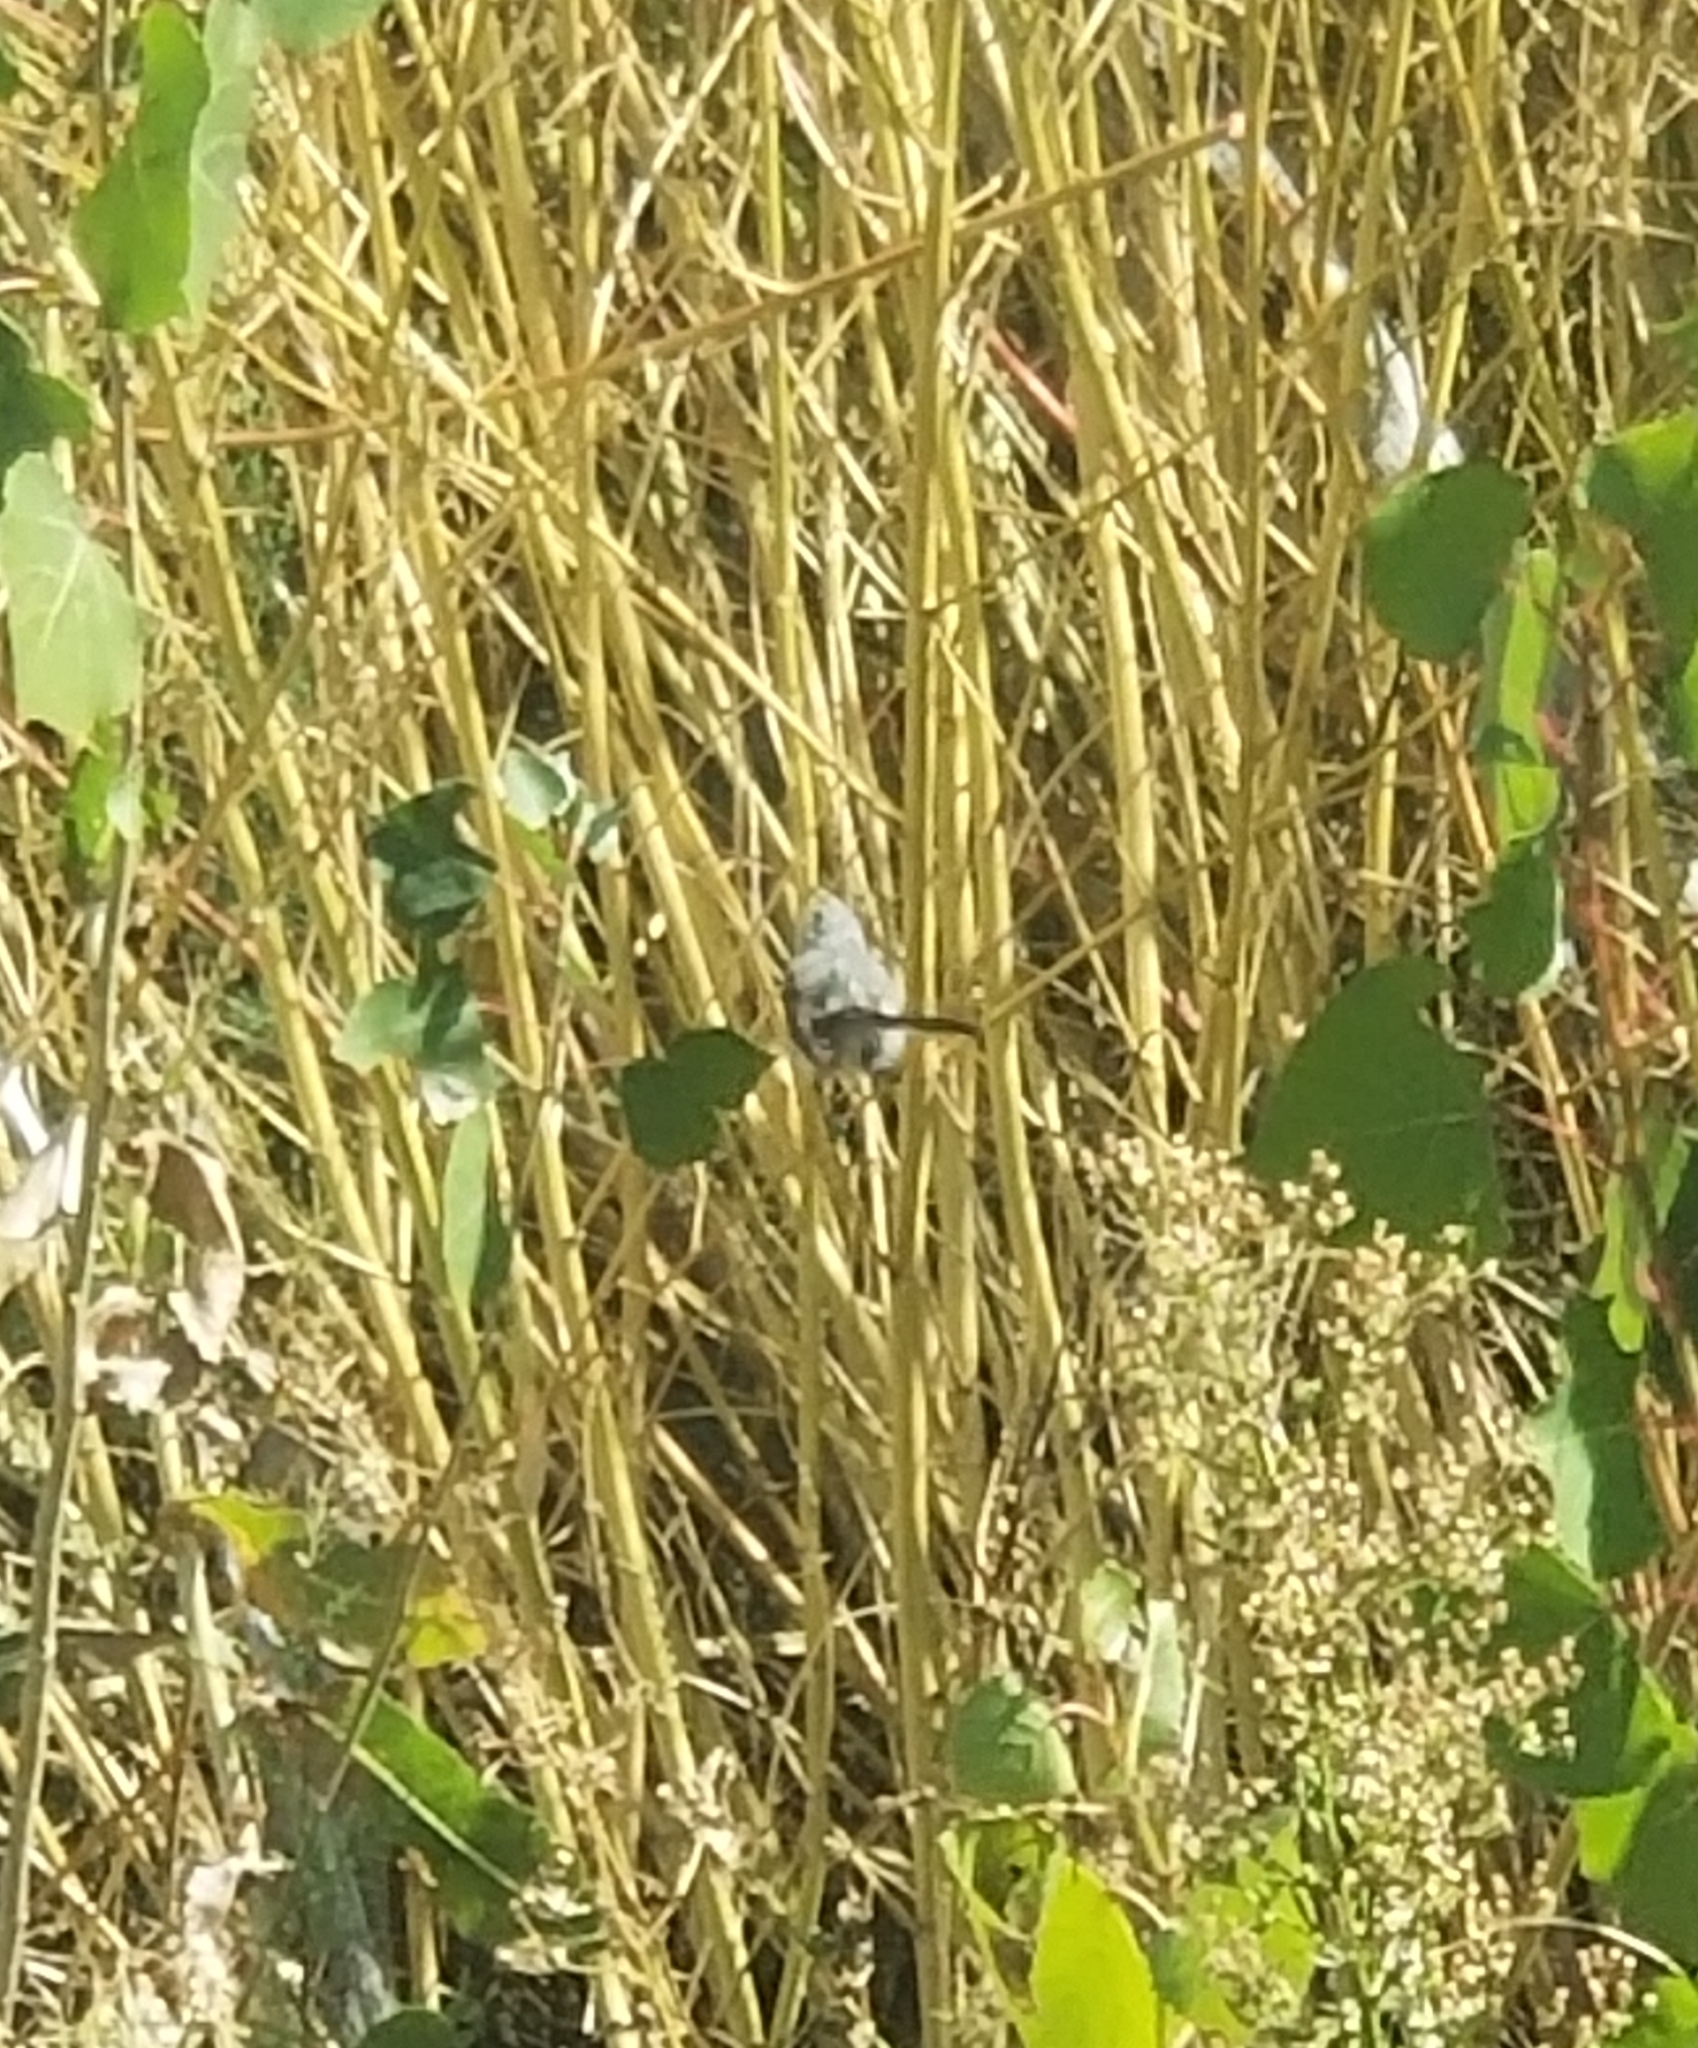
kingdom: Animalia
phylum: Chordata
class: Aves
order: Passeriformes
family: Polioptilidae
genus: Polioptila
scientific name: Polioptila caerulea
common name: Blue-gray gnatcatcher
